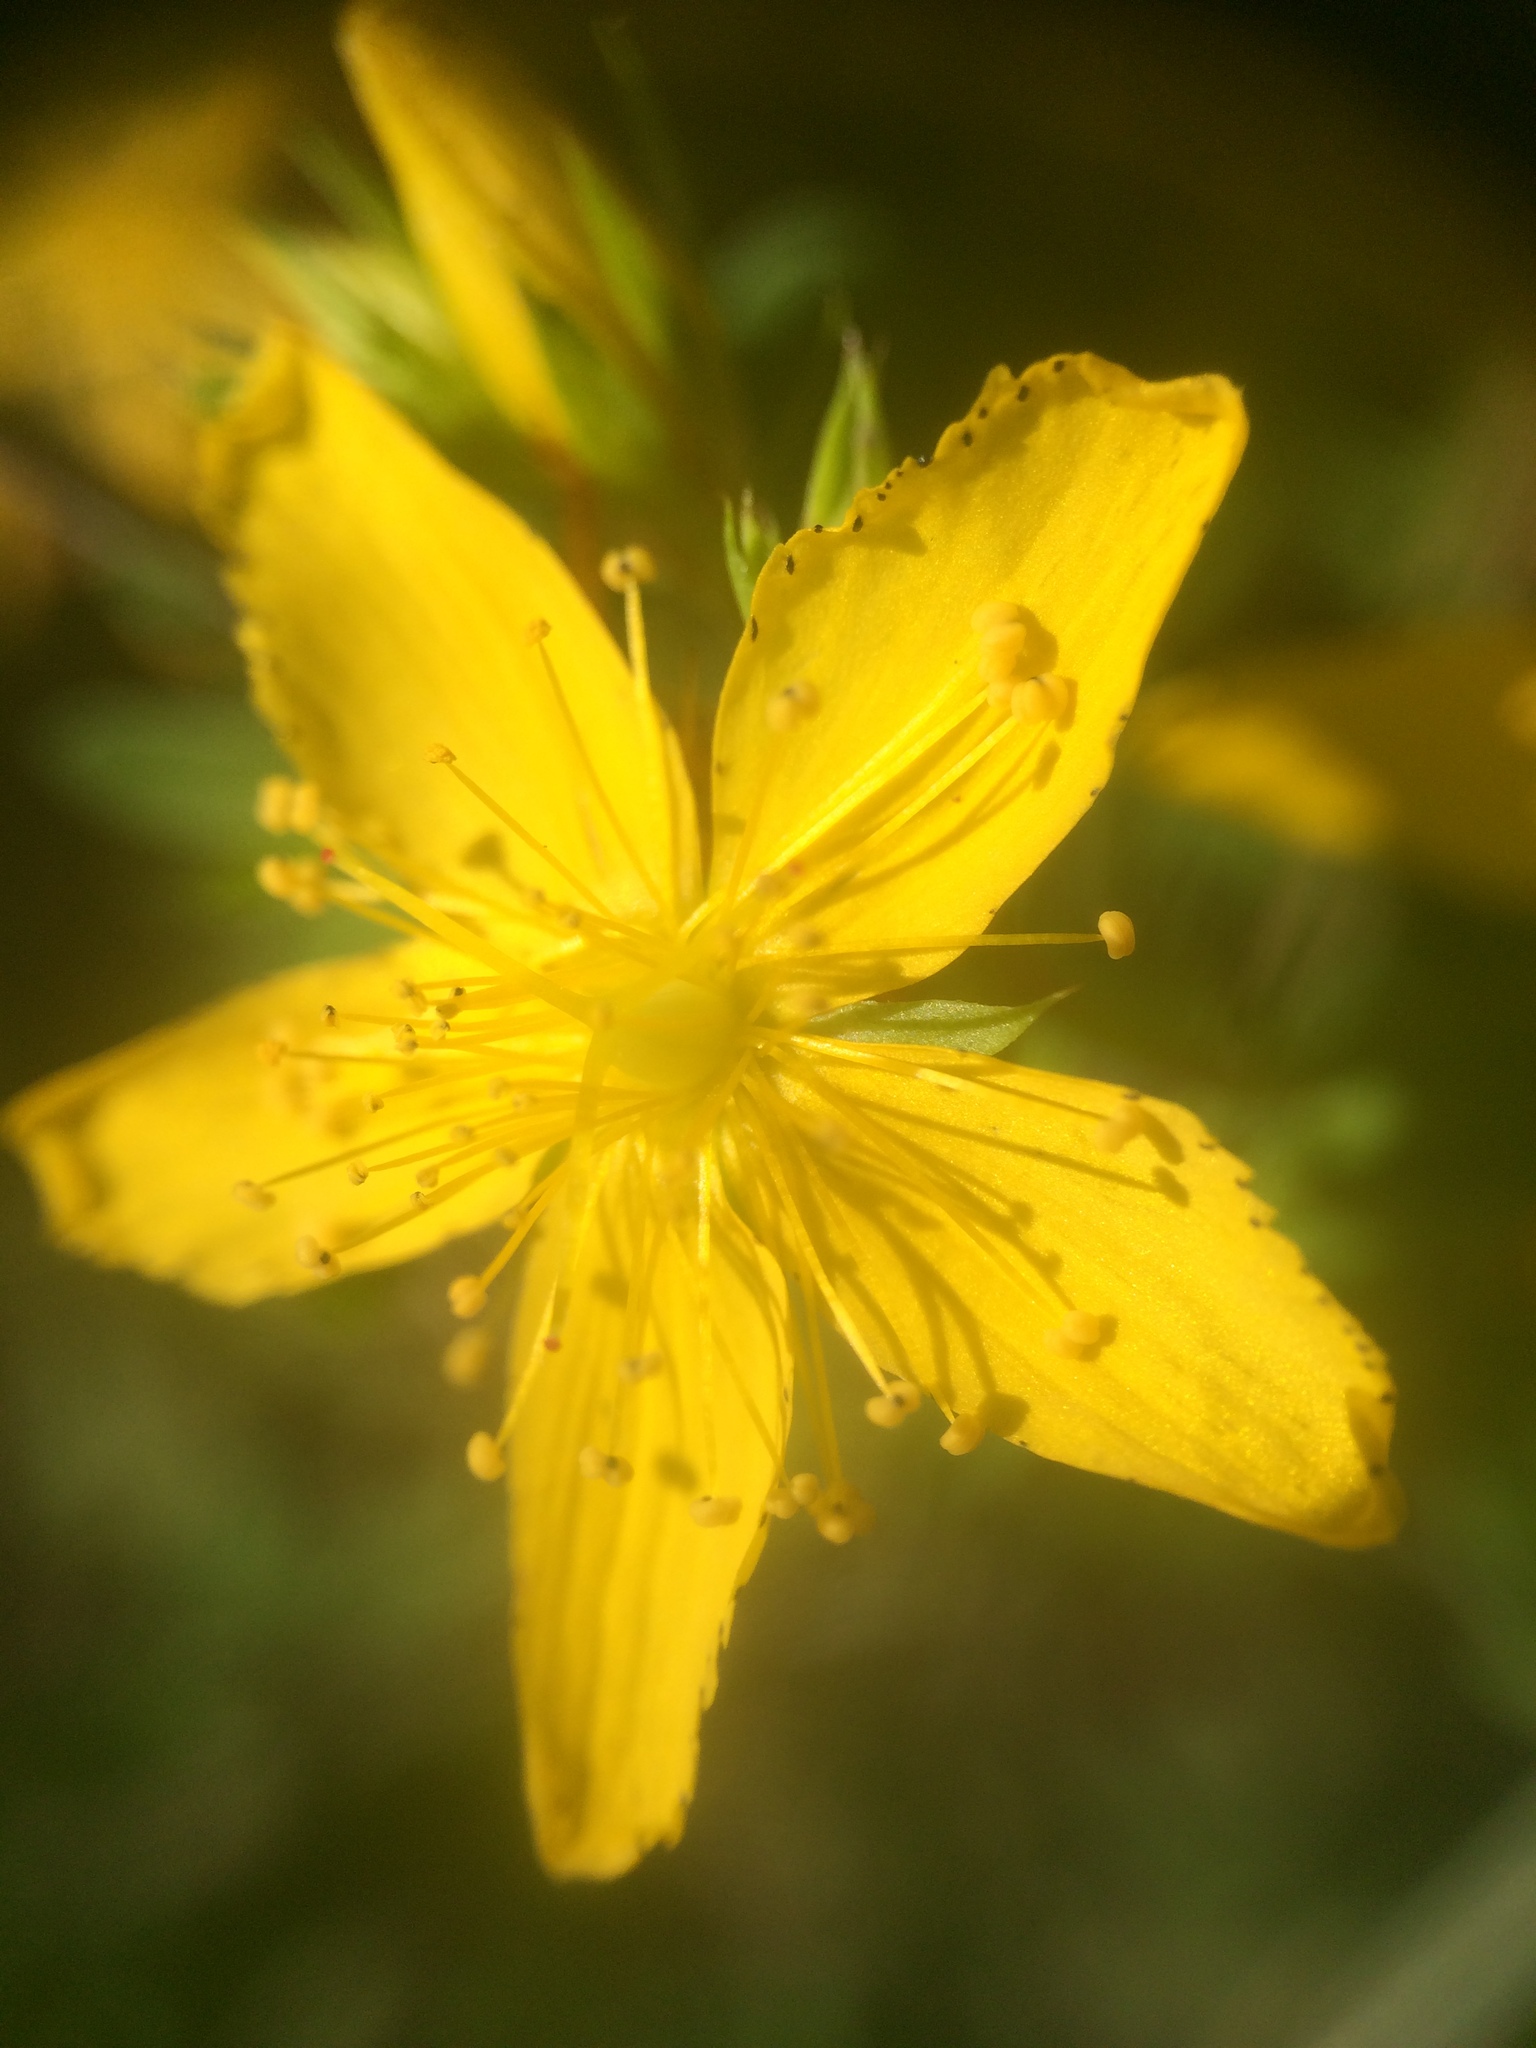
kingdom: Plantae
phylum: Tracheophyta
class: Magnoliopsida
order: Malpighiales
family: Hypericaceae
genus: Hypericum
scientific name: Hypericum perforatum
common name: Common st. johnswort
